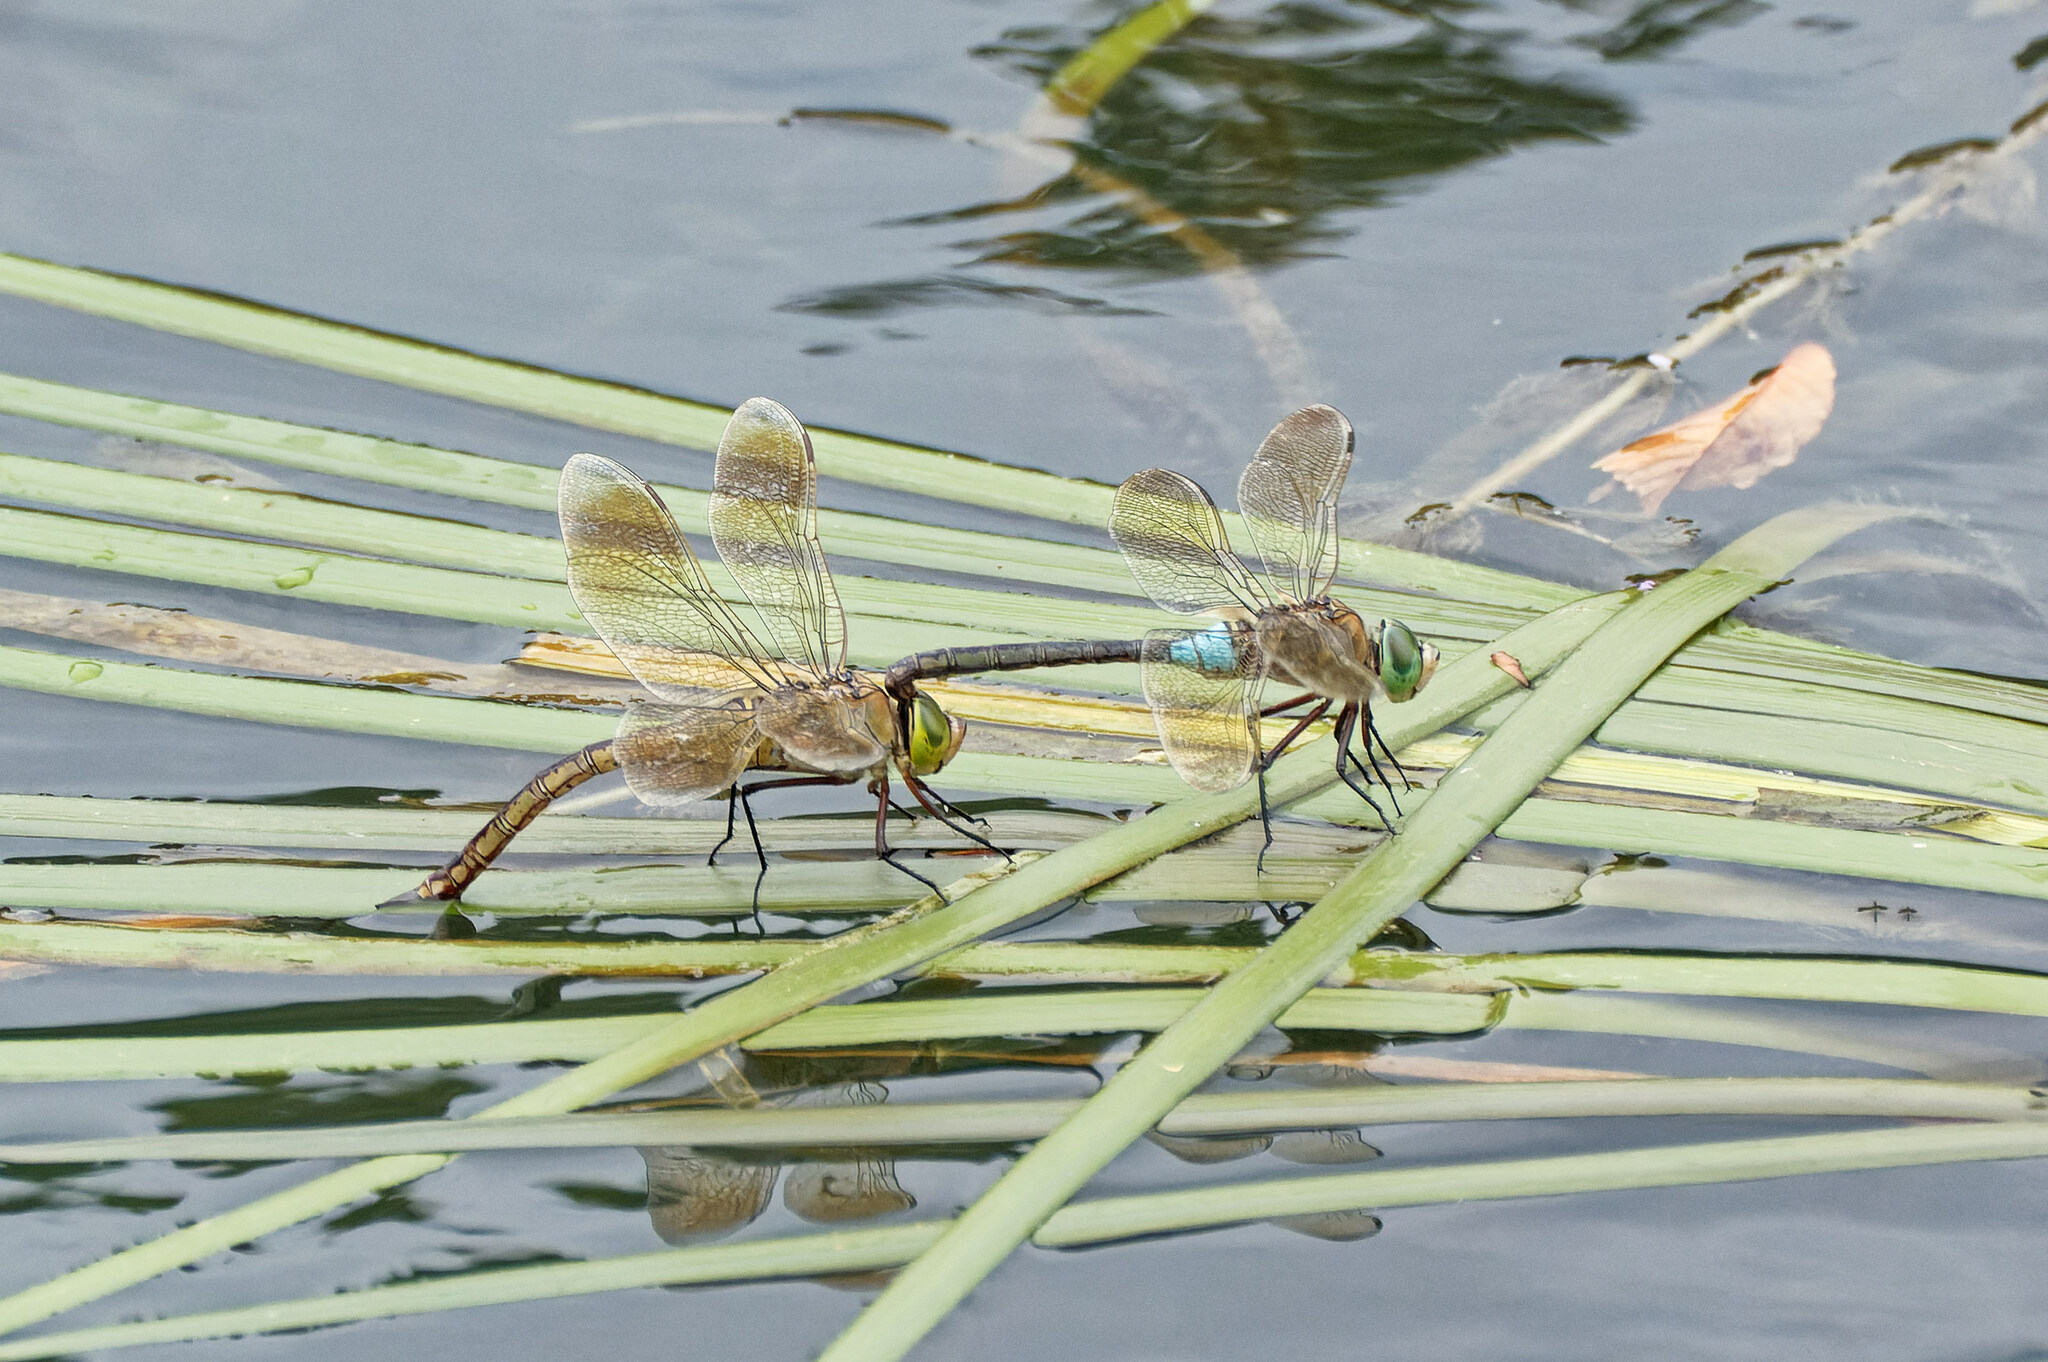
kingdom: Animalia
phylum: Arthropoda
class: Insecta
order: Odonata
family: Aeshnidae
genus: Anax
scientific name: Anax parthenope
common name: Lesser emperor
